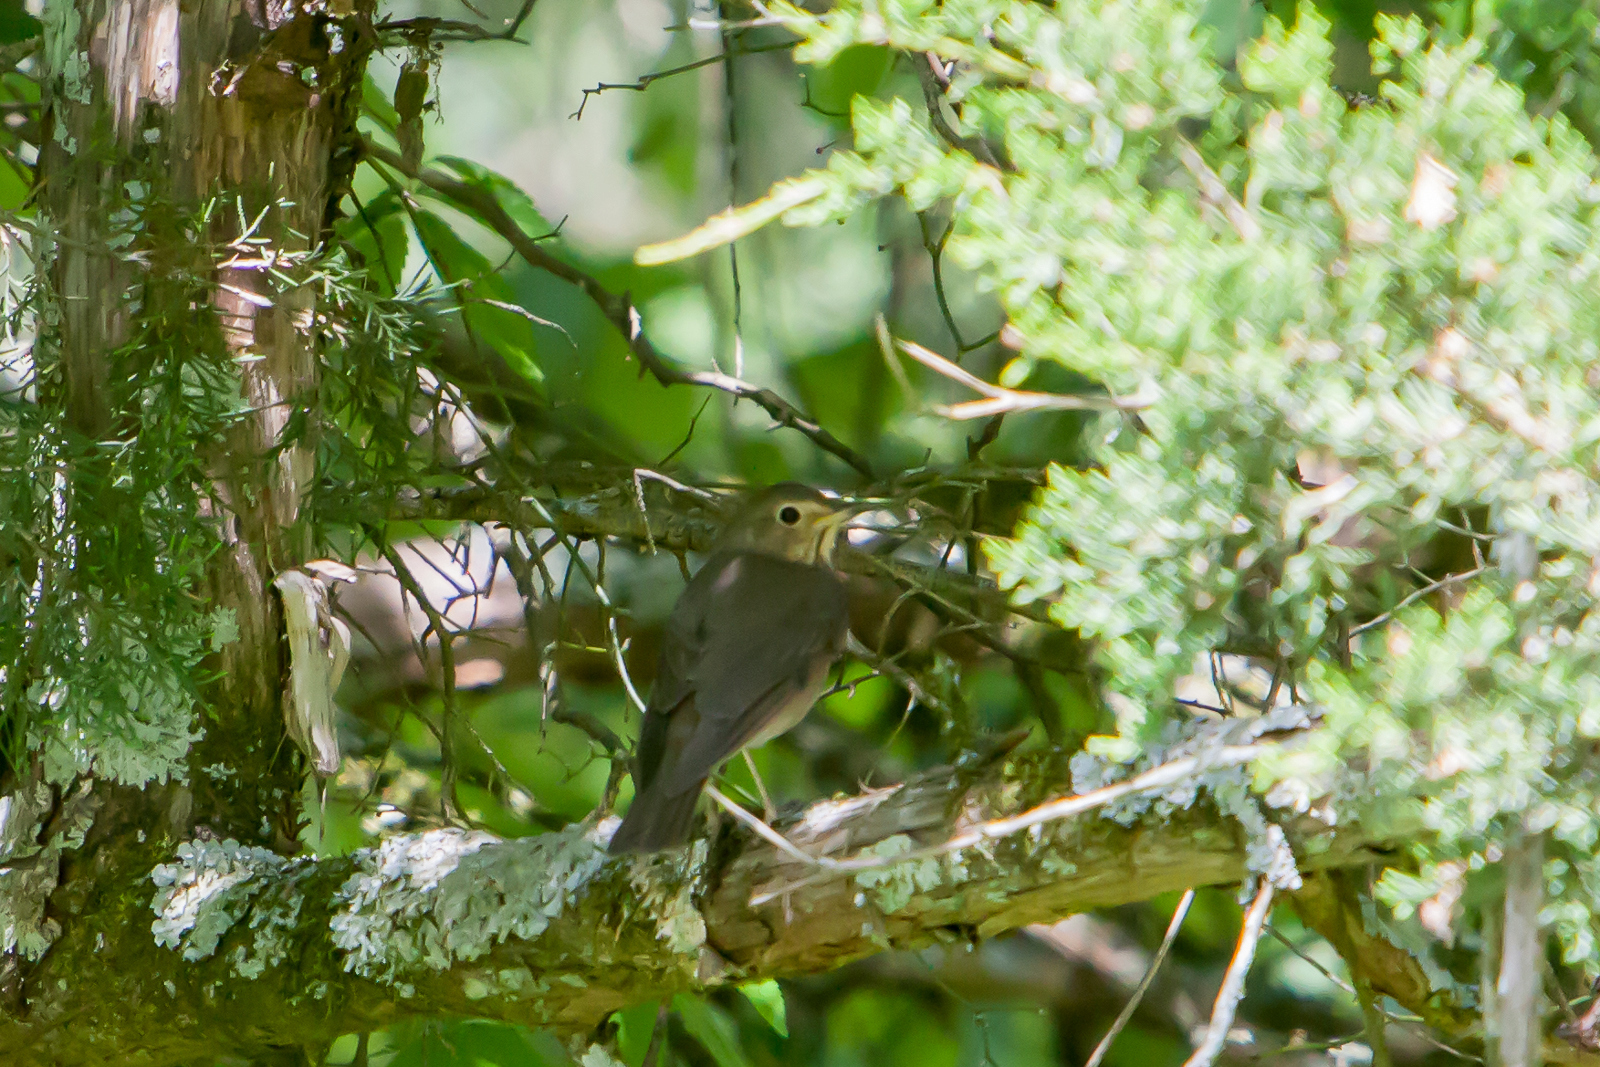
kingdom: Animalia
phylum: Chordata
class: Aves
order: Passeriformes
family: Turdidae
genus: Catharus
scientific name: Catharus ustulatus
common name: Swainson's thrush
